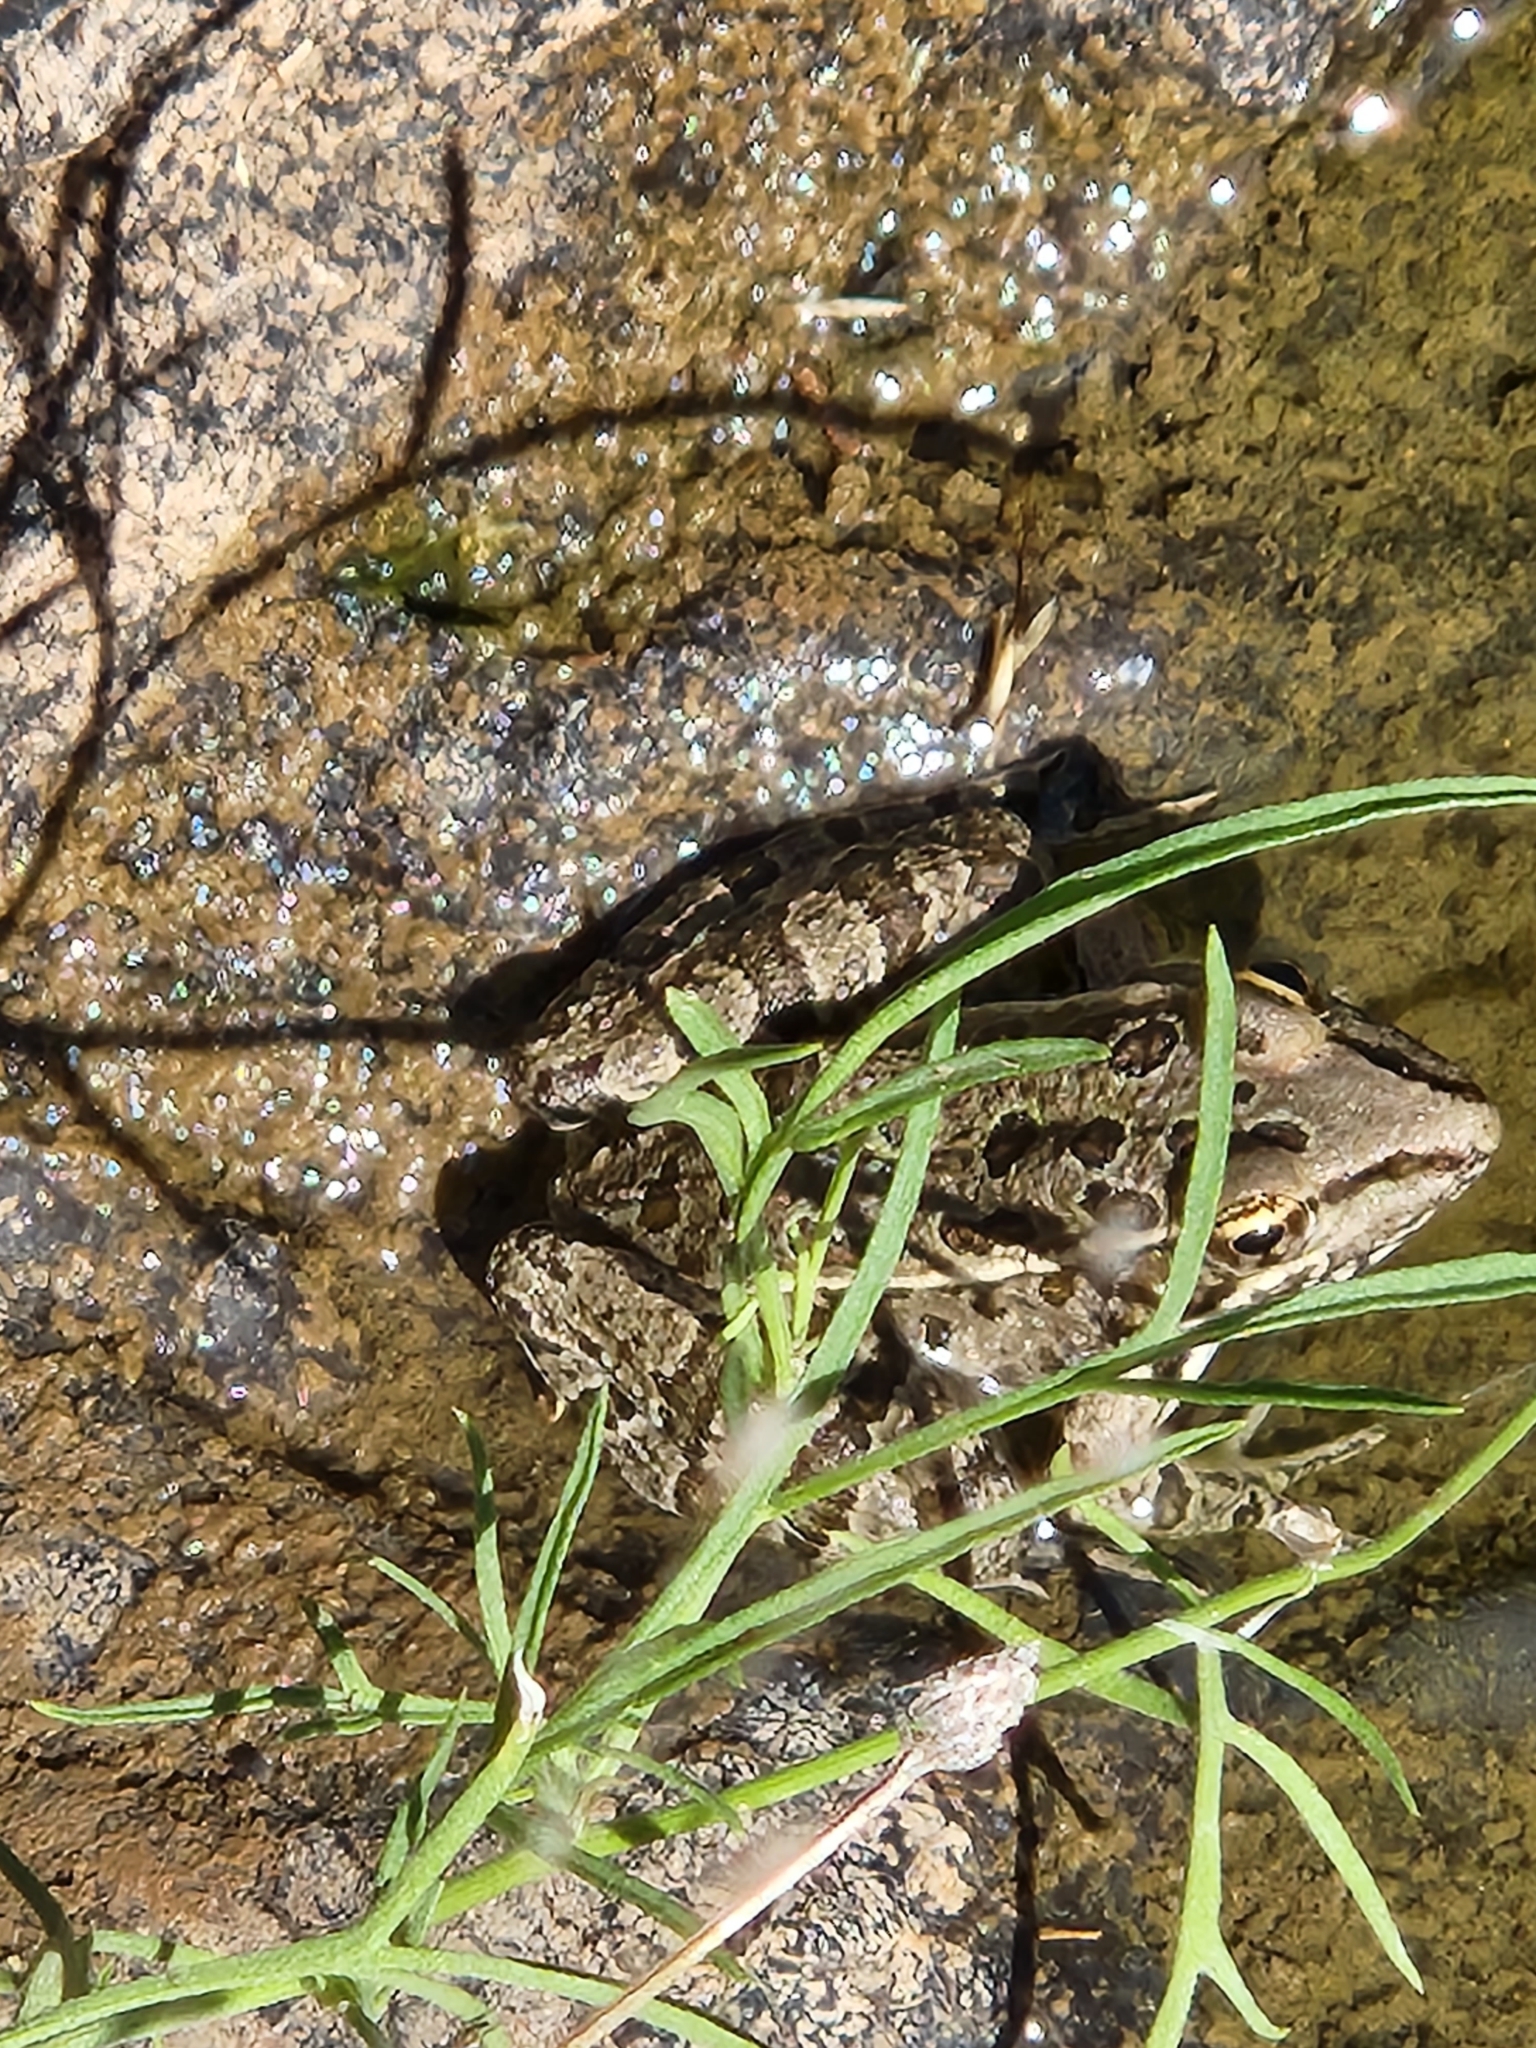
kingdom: Animalia
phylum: Chordata
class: Amphibia
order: Anura
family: Ranidae
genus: Lithobates
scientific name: Lithobates berlandieri
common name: Rio grande leopard frog
